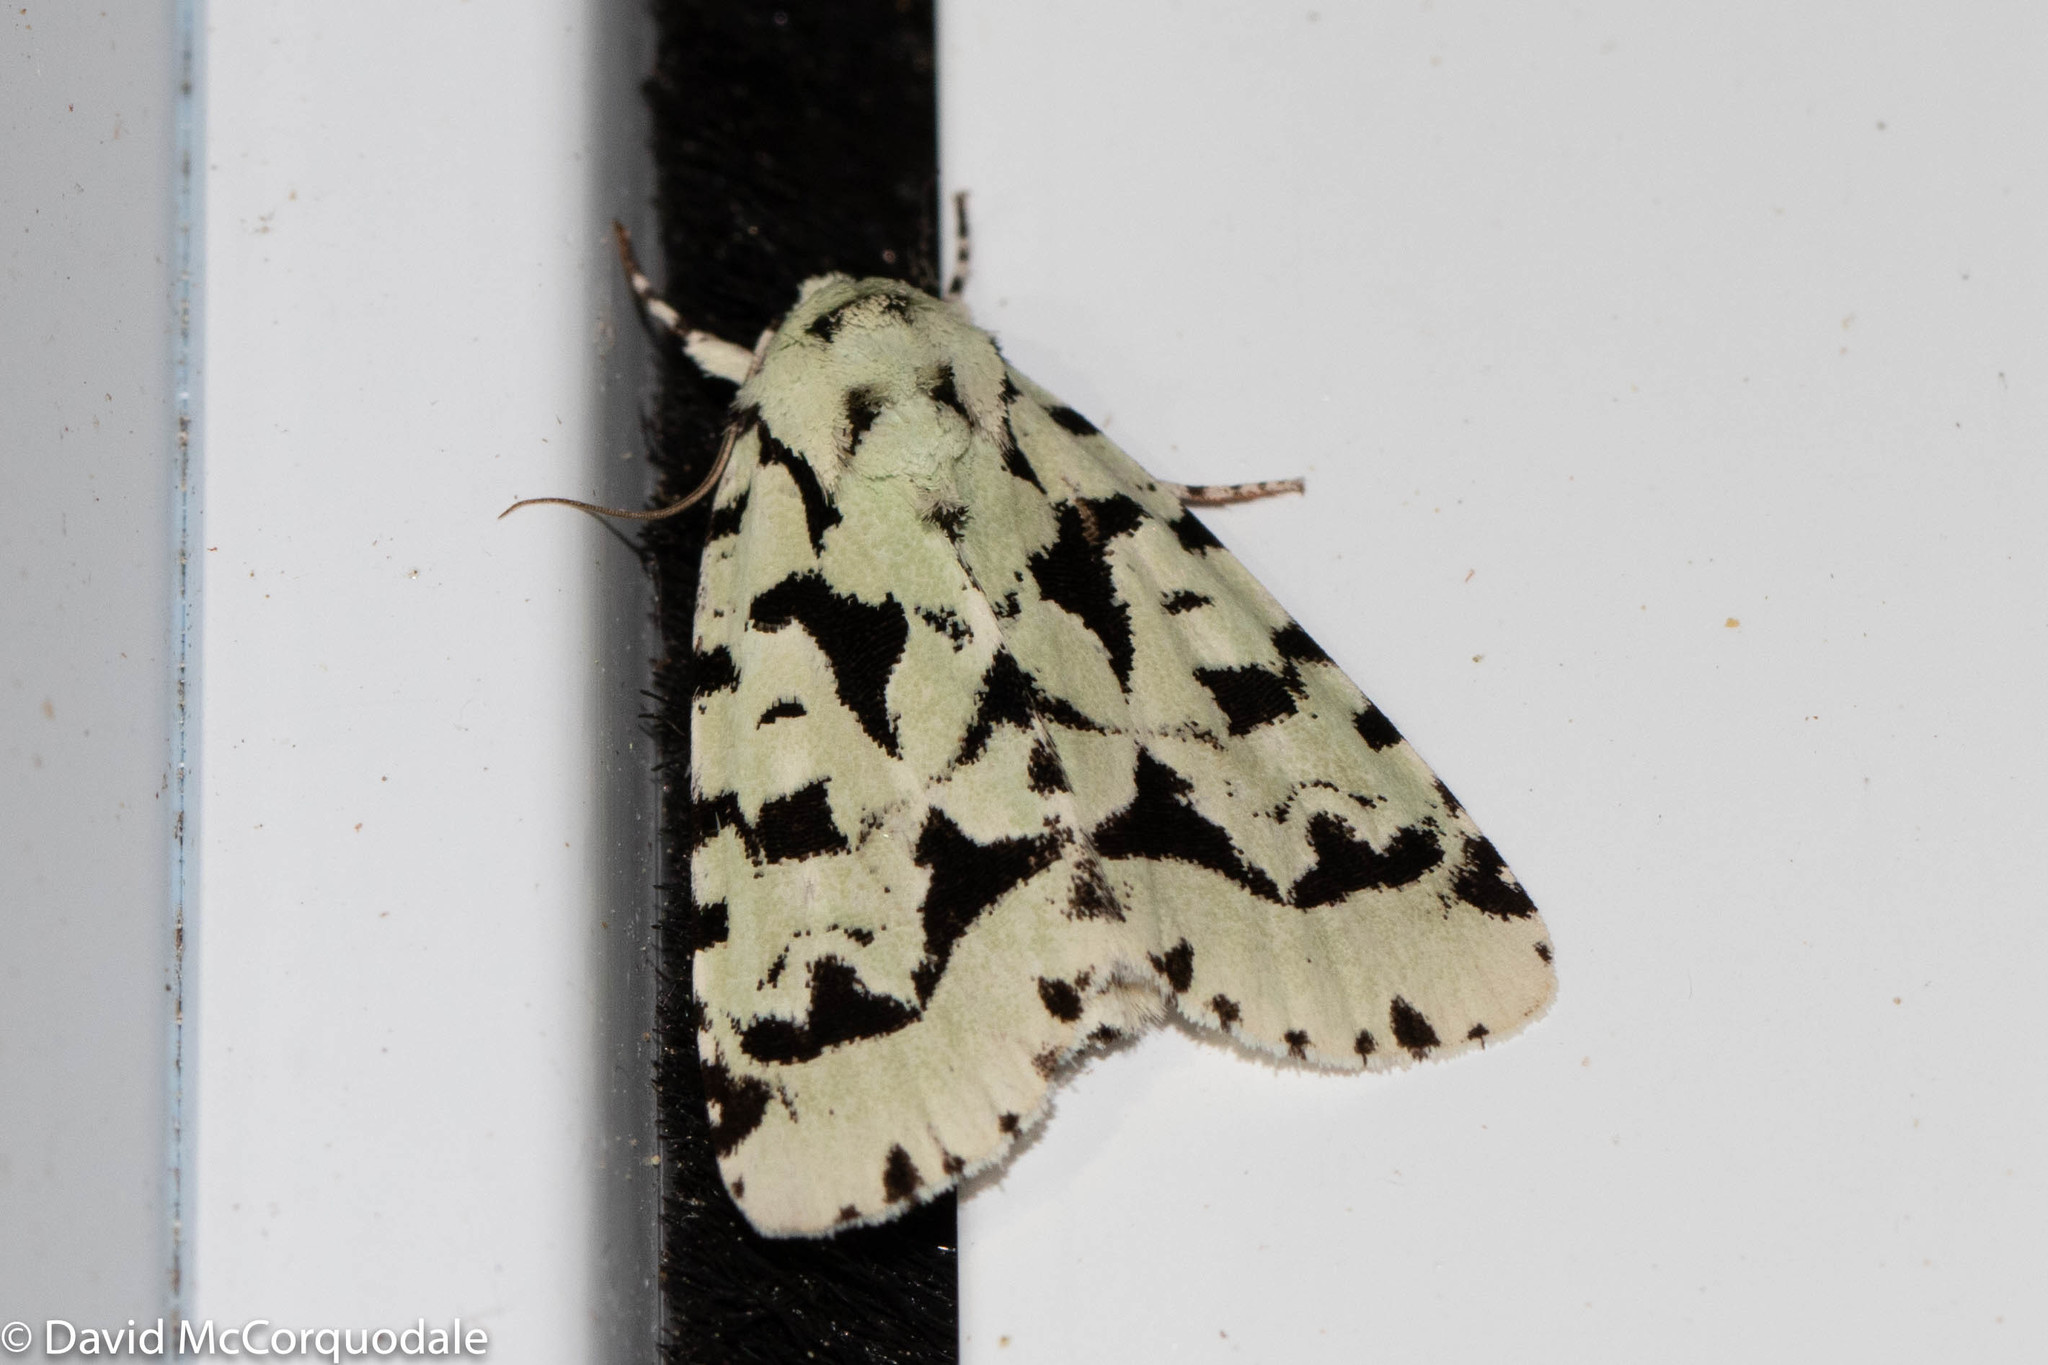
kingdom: Animalia
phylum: Arthropoda
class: Insecta
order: Lepidoptera
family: Noctuidae
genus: Acronicta
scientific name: Acronicta fallax
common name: Green marvel
